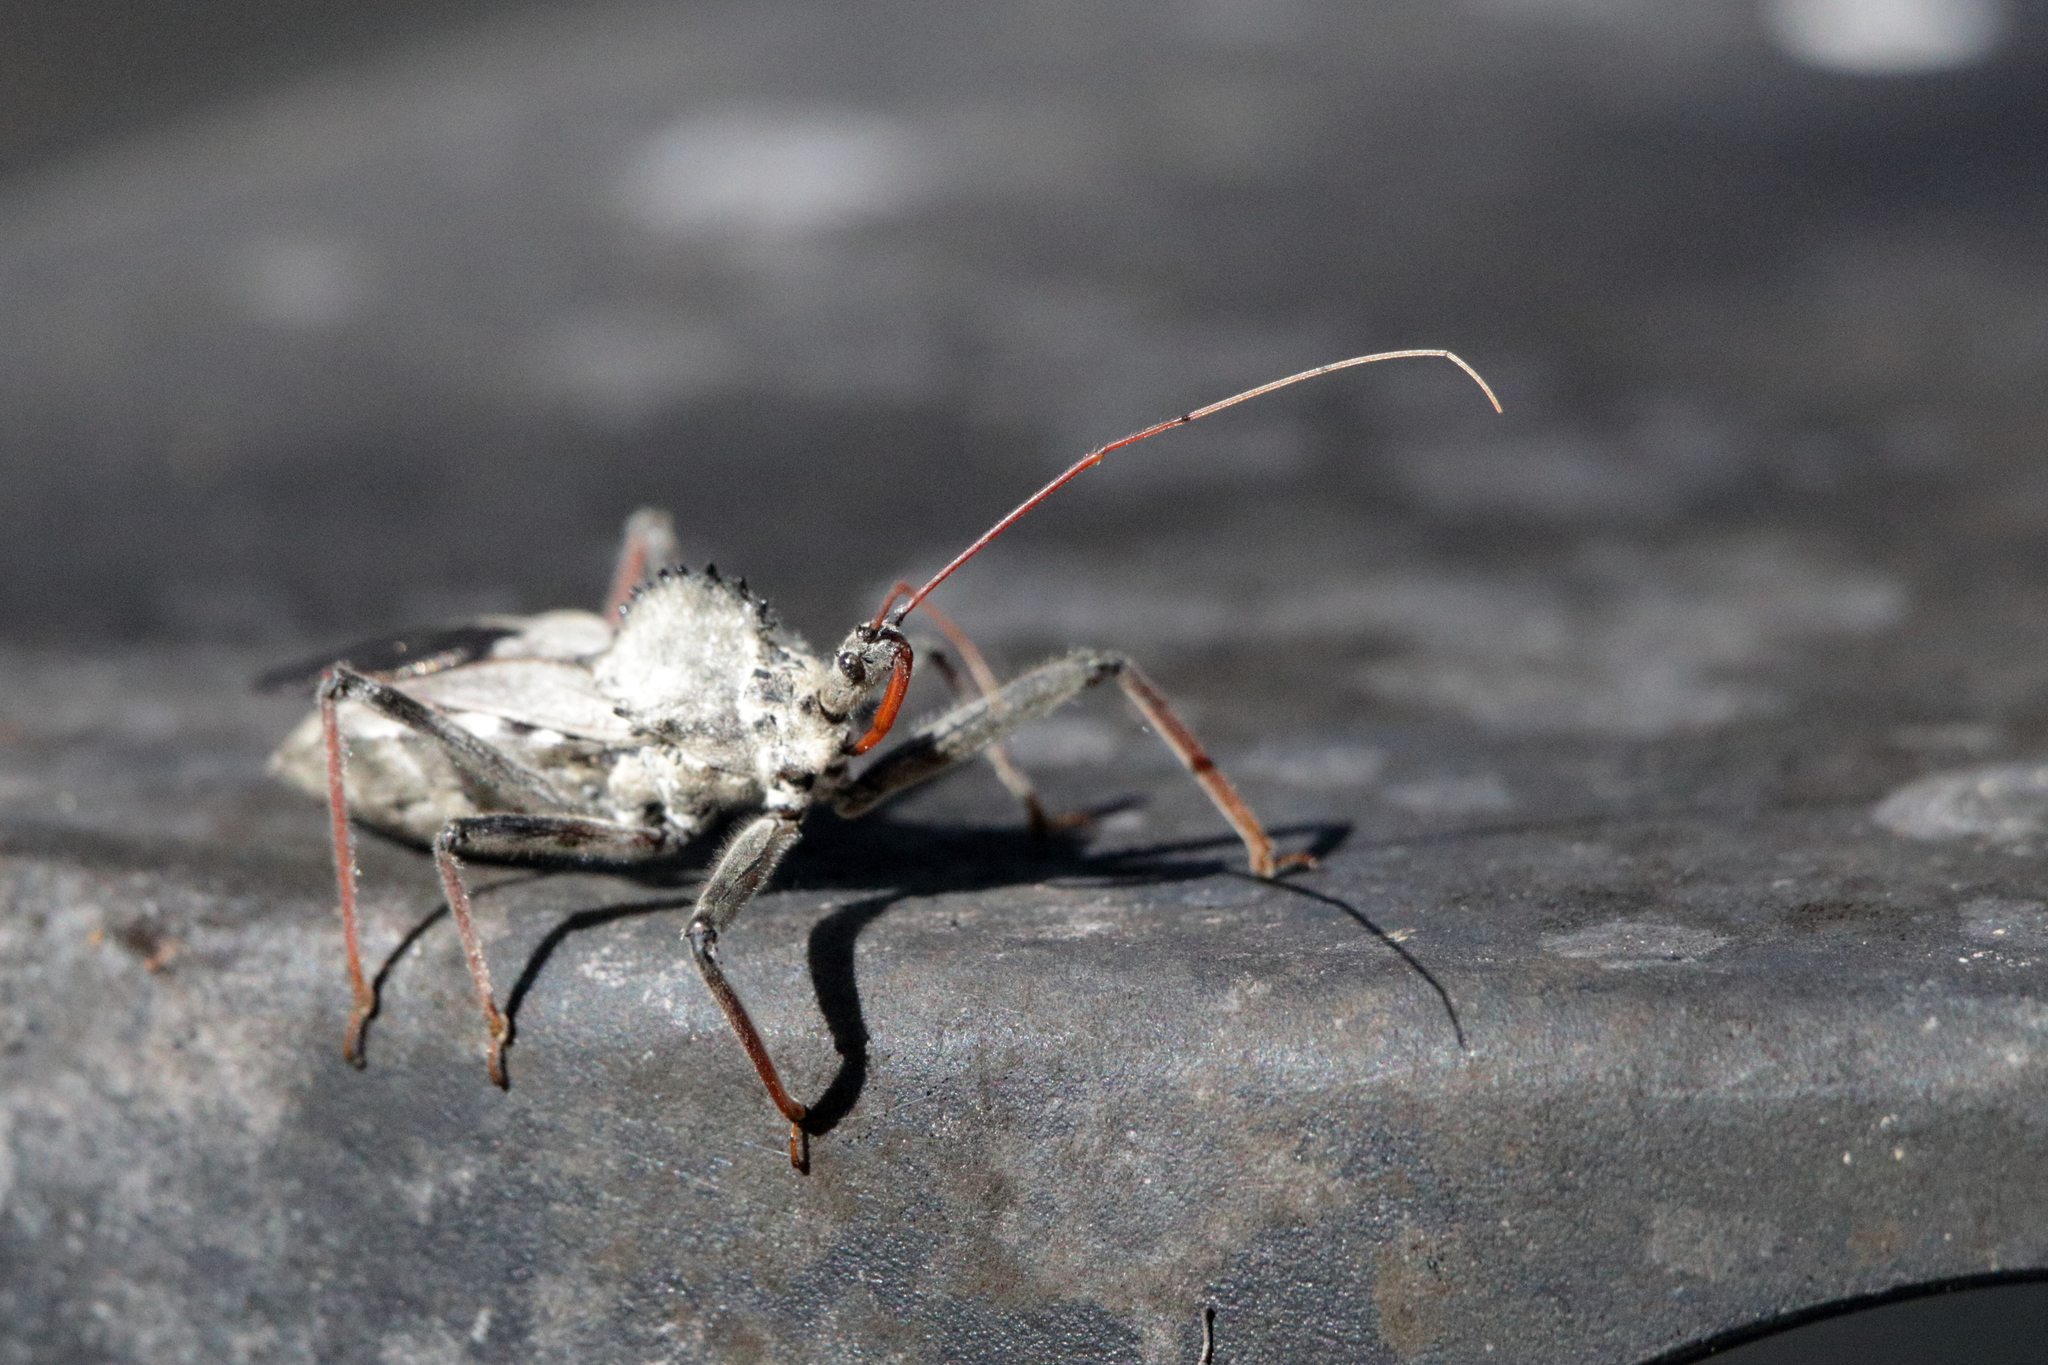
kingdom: Animalia
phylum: Arthropoda
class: Insecta
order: Hemiptera
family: Reduviidae
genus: Arilus
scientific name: Arilus cristatus
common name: North american wheel bug
